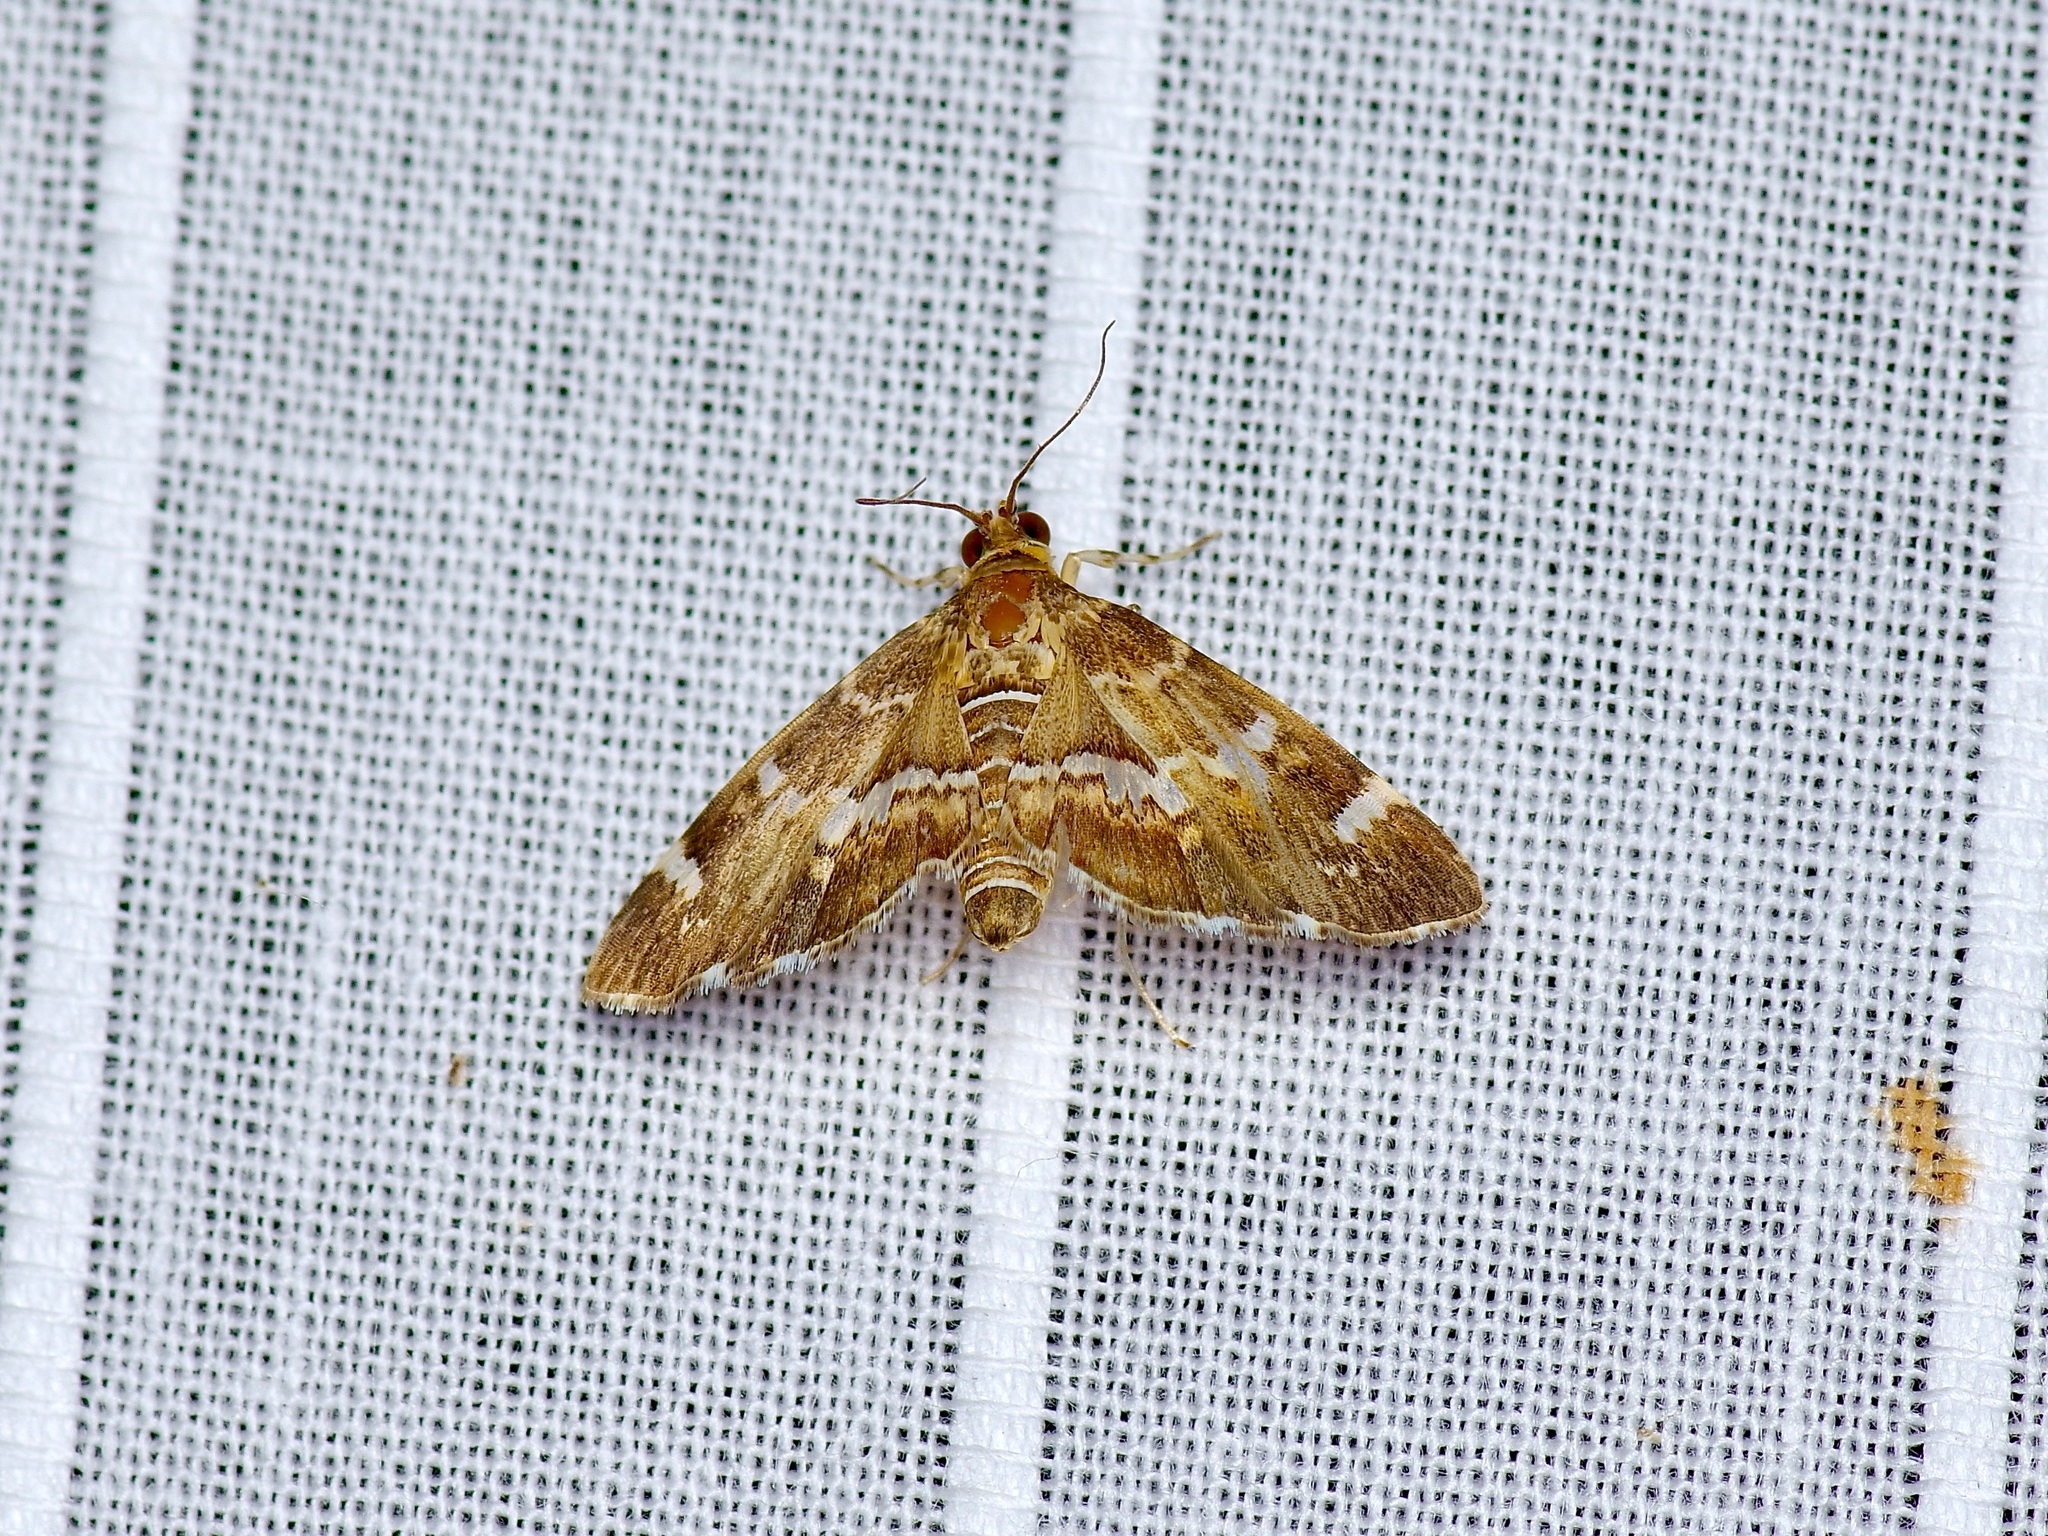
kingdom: Animalia
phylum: Arthropoda
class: Insecta
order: Lepidoptera
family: Crambidae
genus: Hymenia
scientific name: Hymenia perspectalis
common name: Spotted beet webworm
